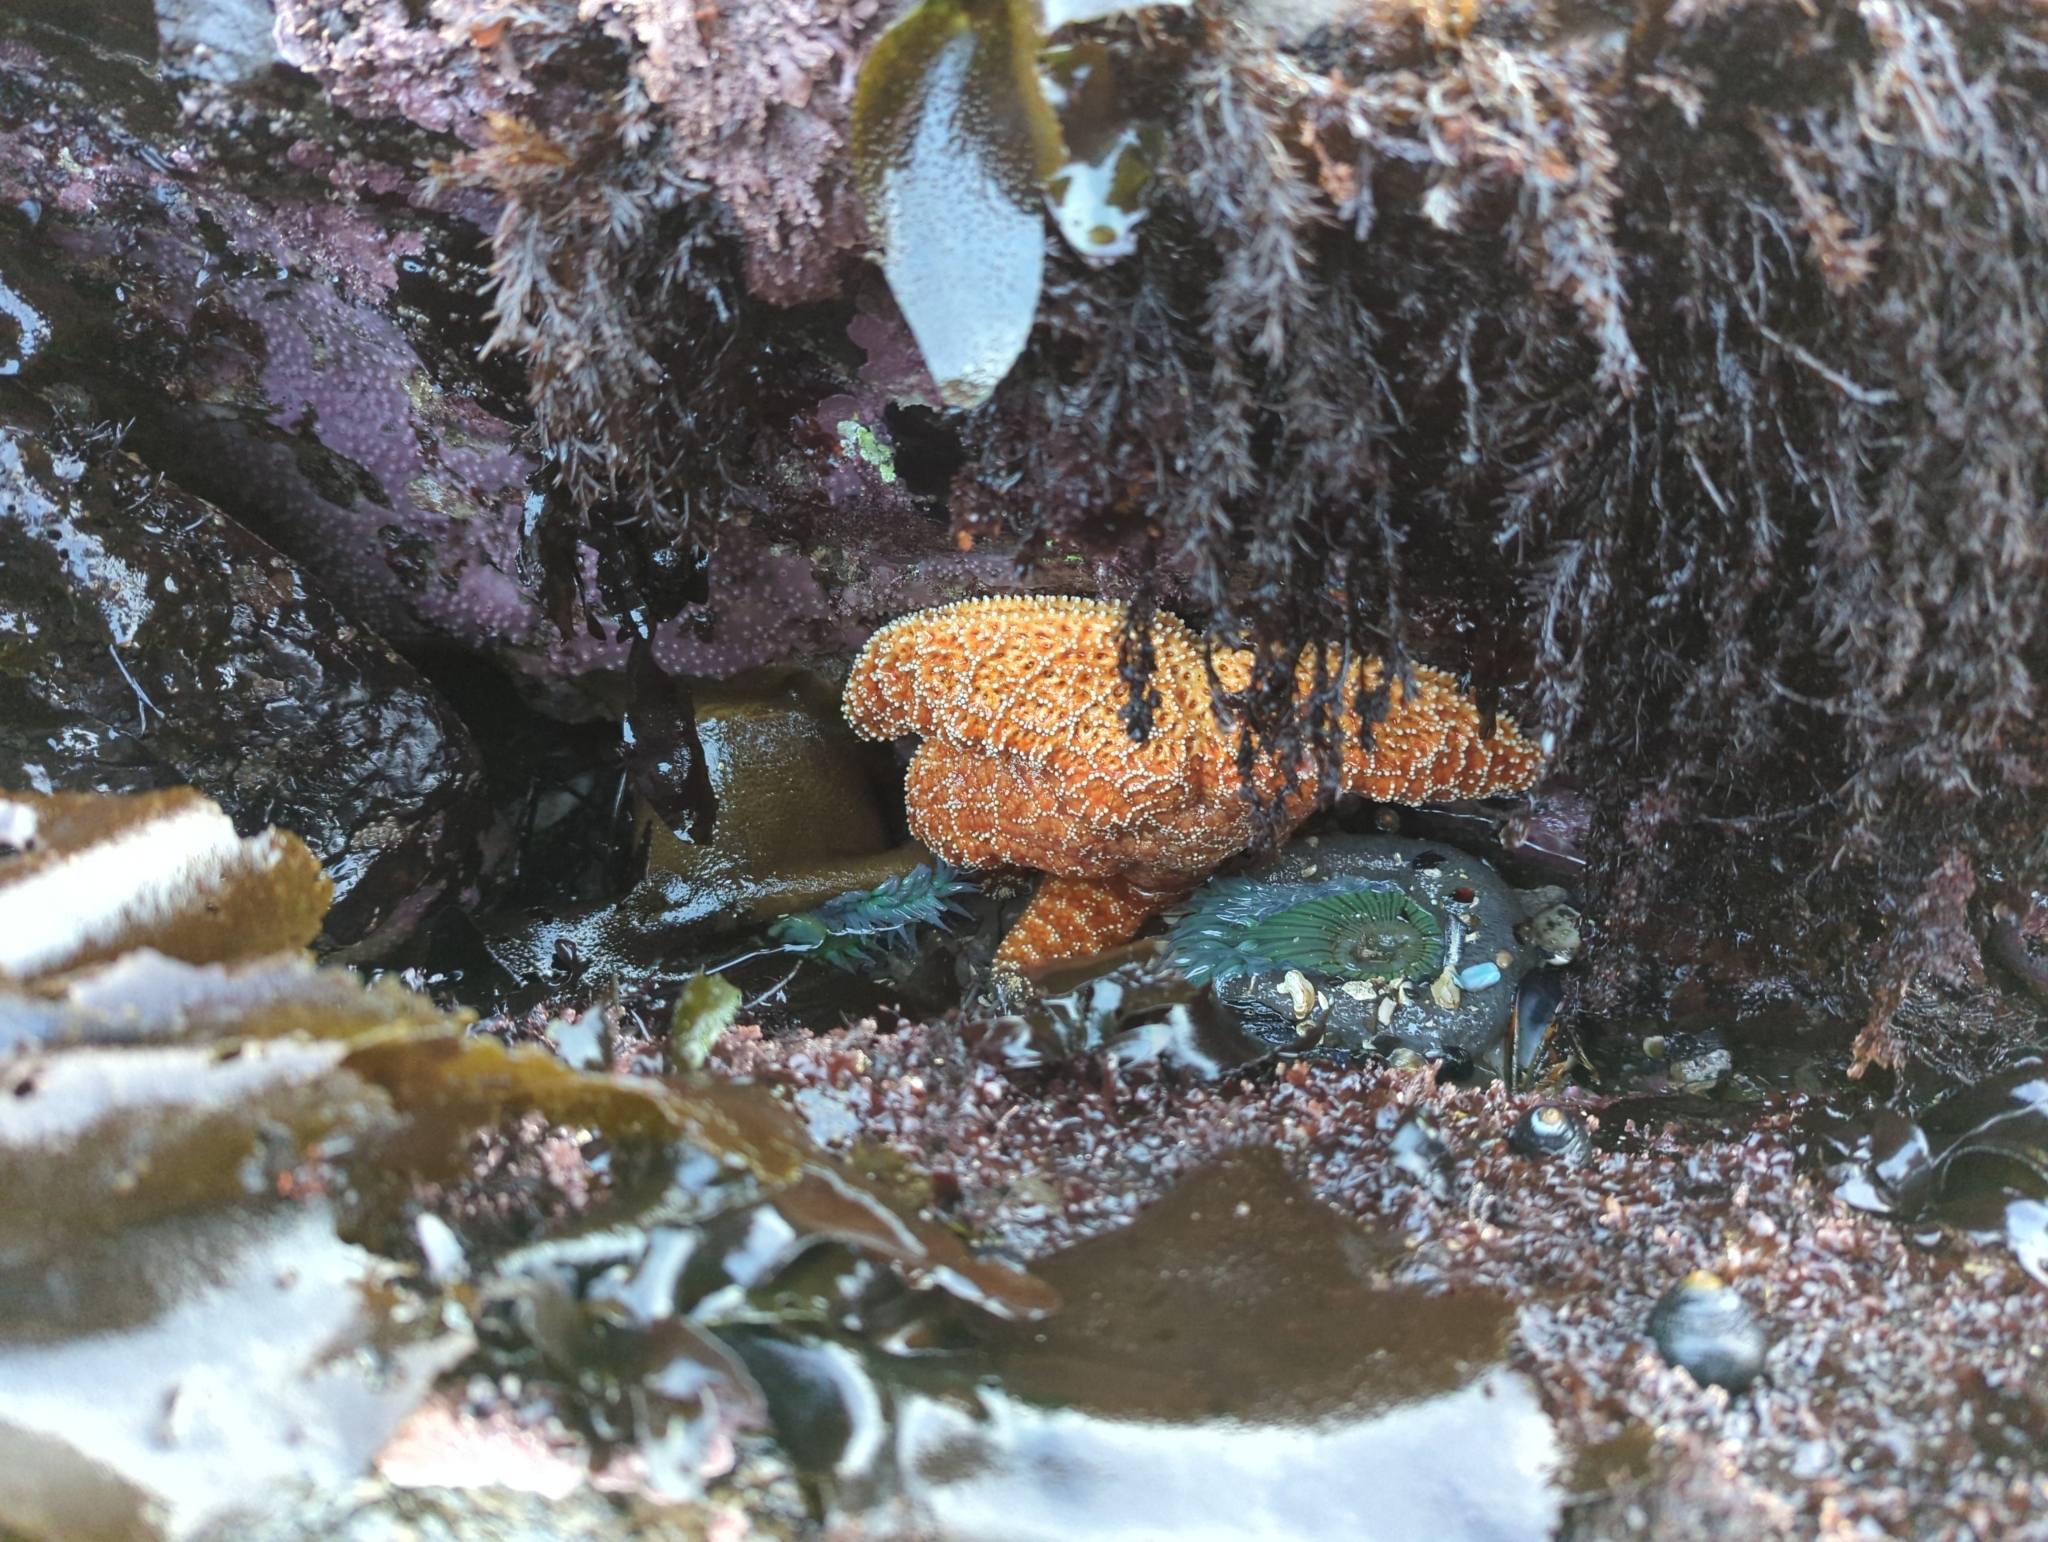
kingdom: Animalia
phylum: Echinodermata
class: Asteroidea
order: Forcipulatida
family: Asteriidae
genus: Pisaster
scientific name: Pisaster ochraceus
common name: Ochre stars
